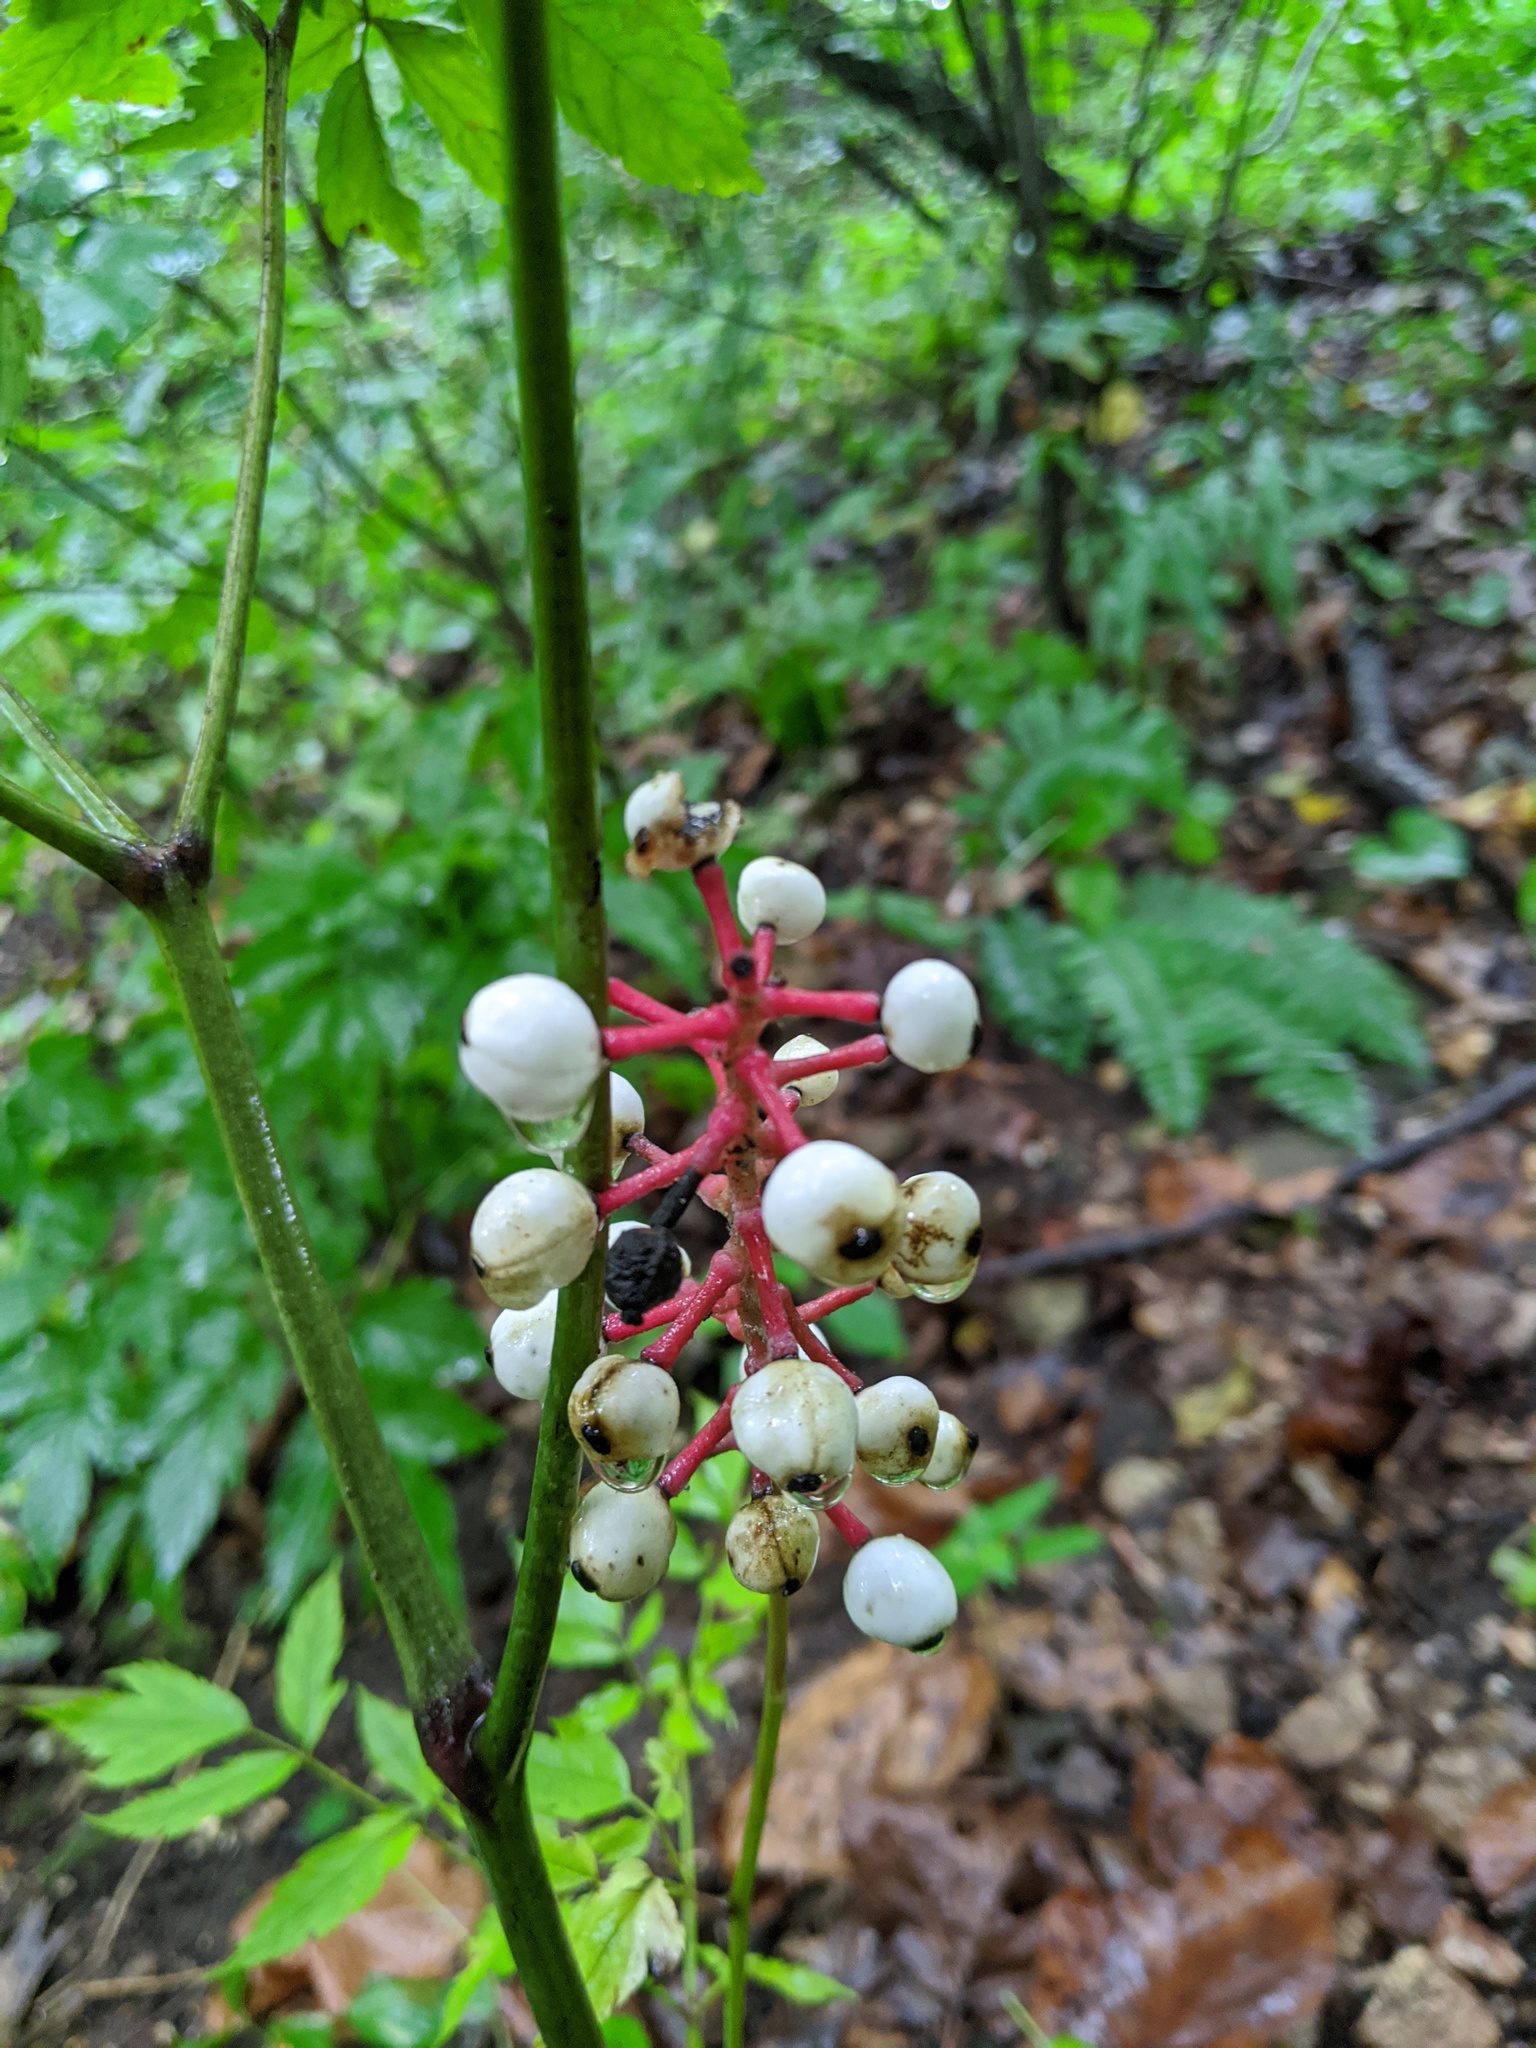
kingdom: Plantae
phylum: Tracheophyta
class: Magnoliopsida
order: Ranunculales
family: Ranunculaceae
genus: Actaea
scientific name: Actaea pachypoda
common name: Doll's-eyes
